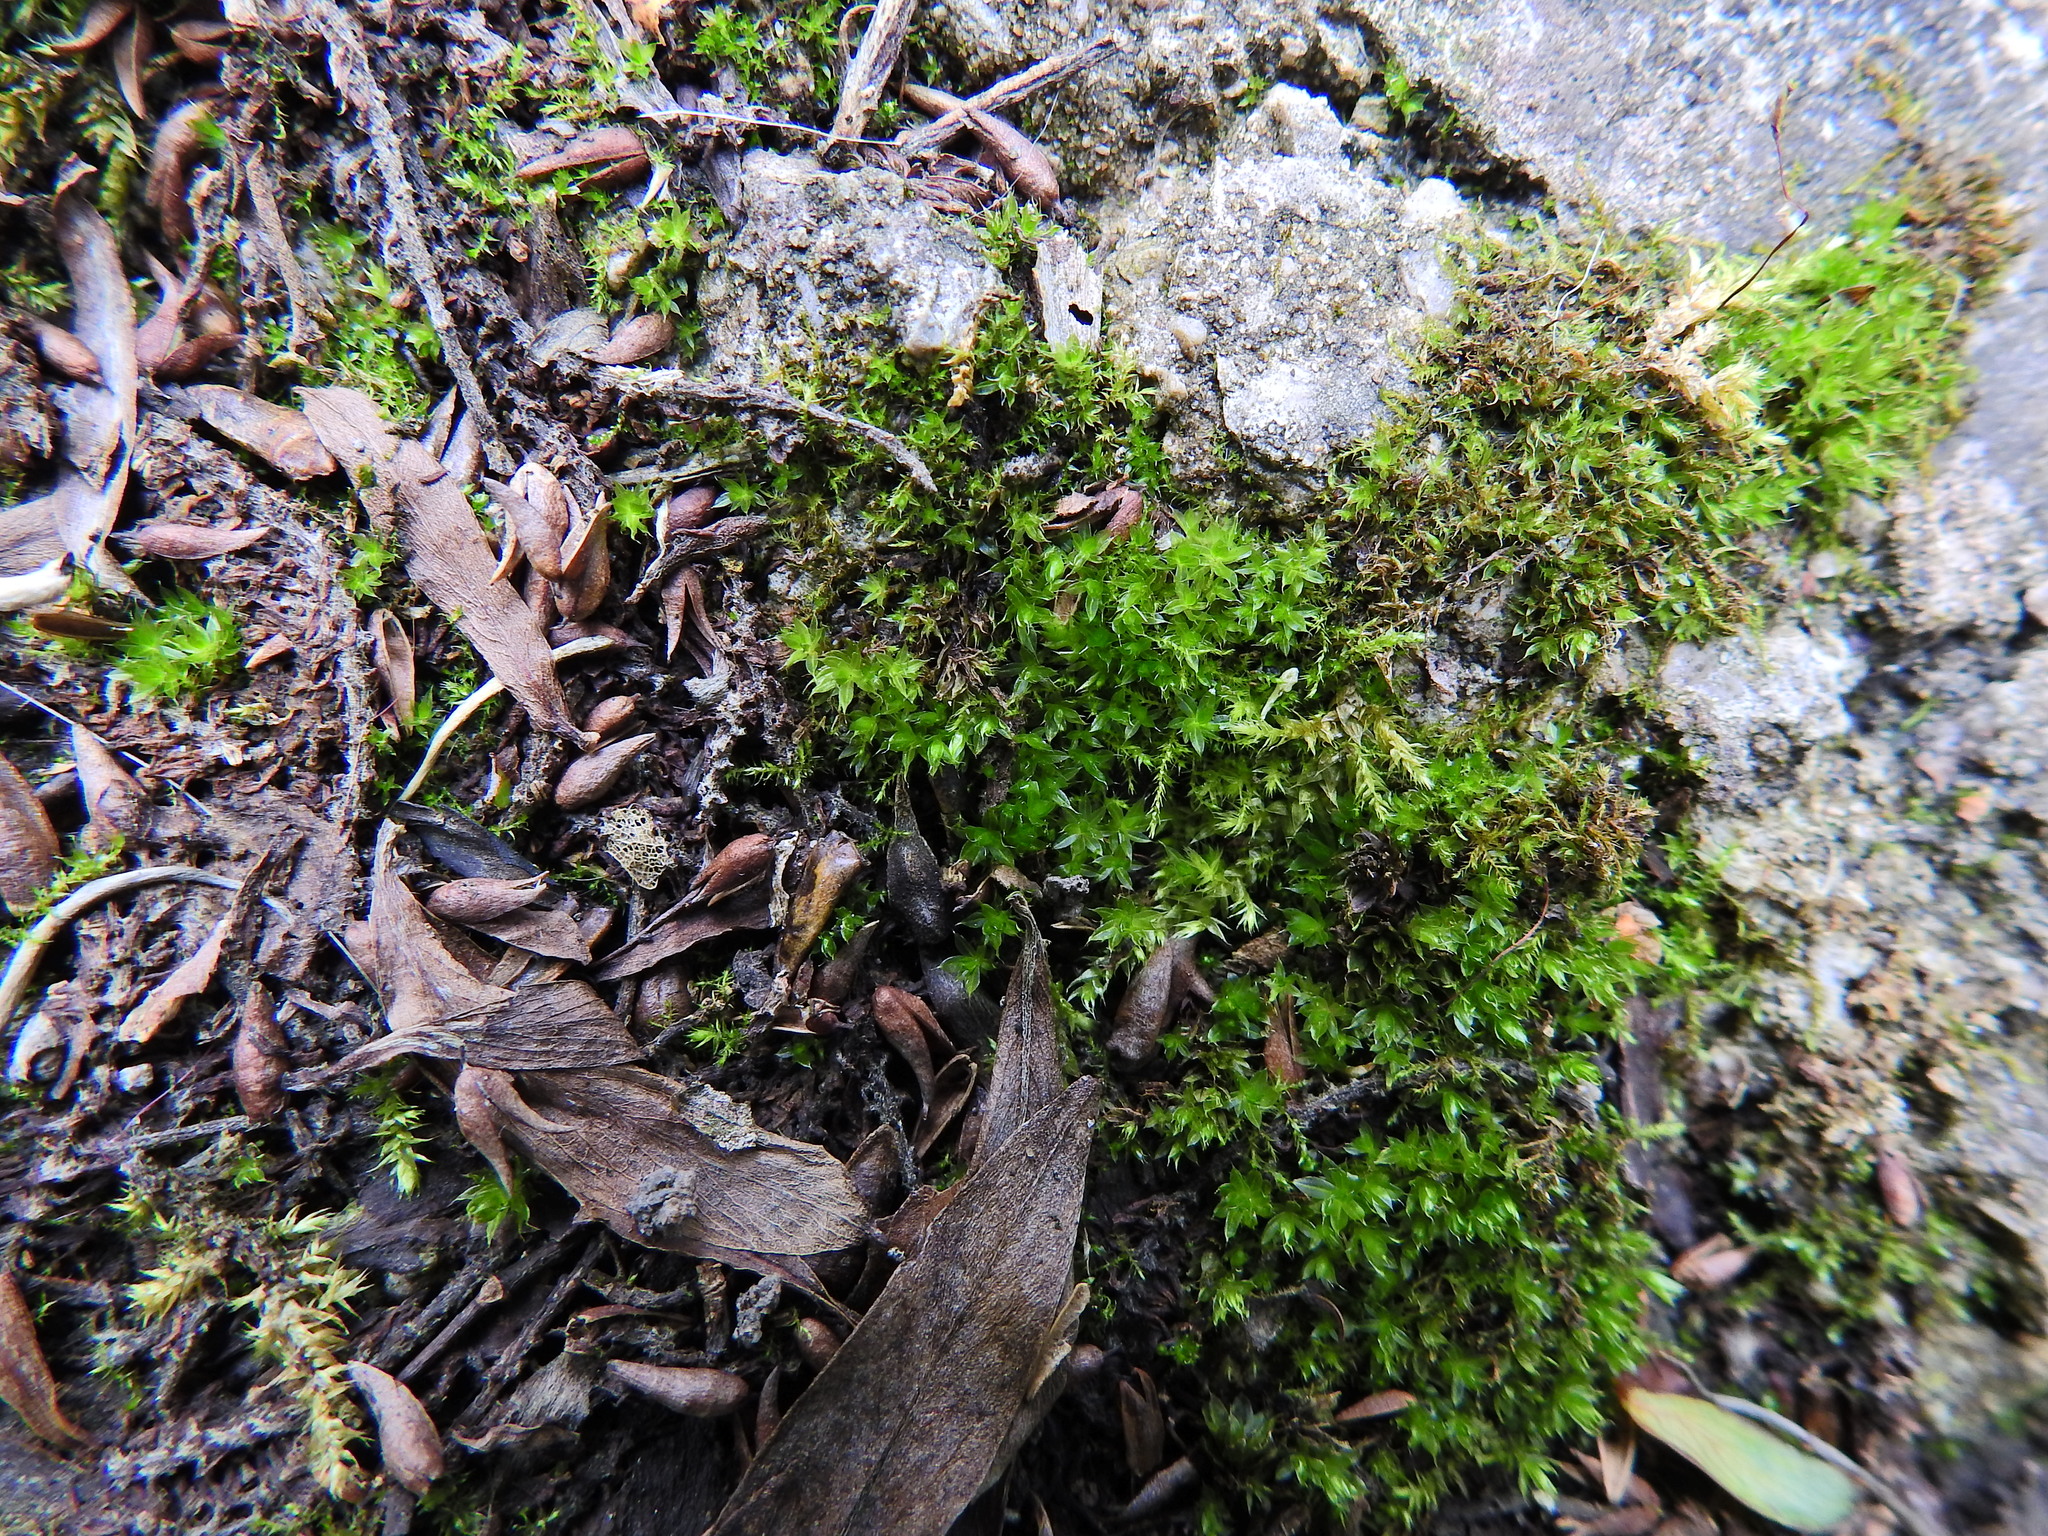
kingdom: Plantae
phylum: Bryophyta
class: Bryopsida
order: Bryales
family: Bryaceae
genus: Rosulabryum
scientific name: Rosulabryum capillare
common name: Capillary thread-moss
